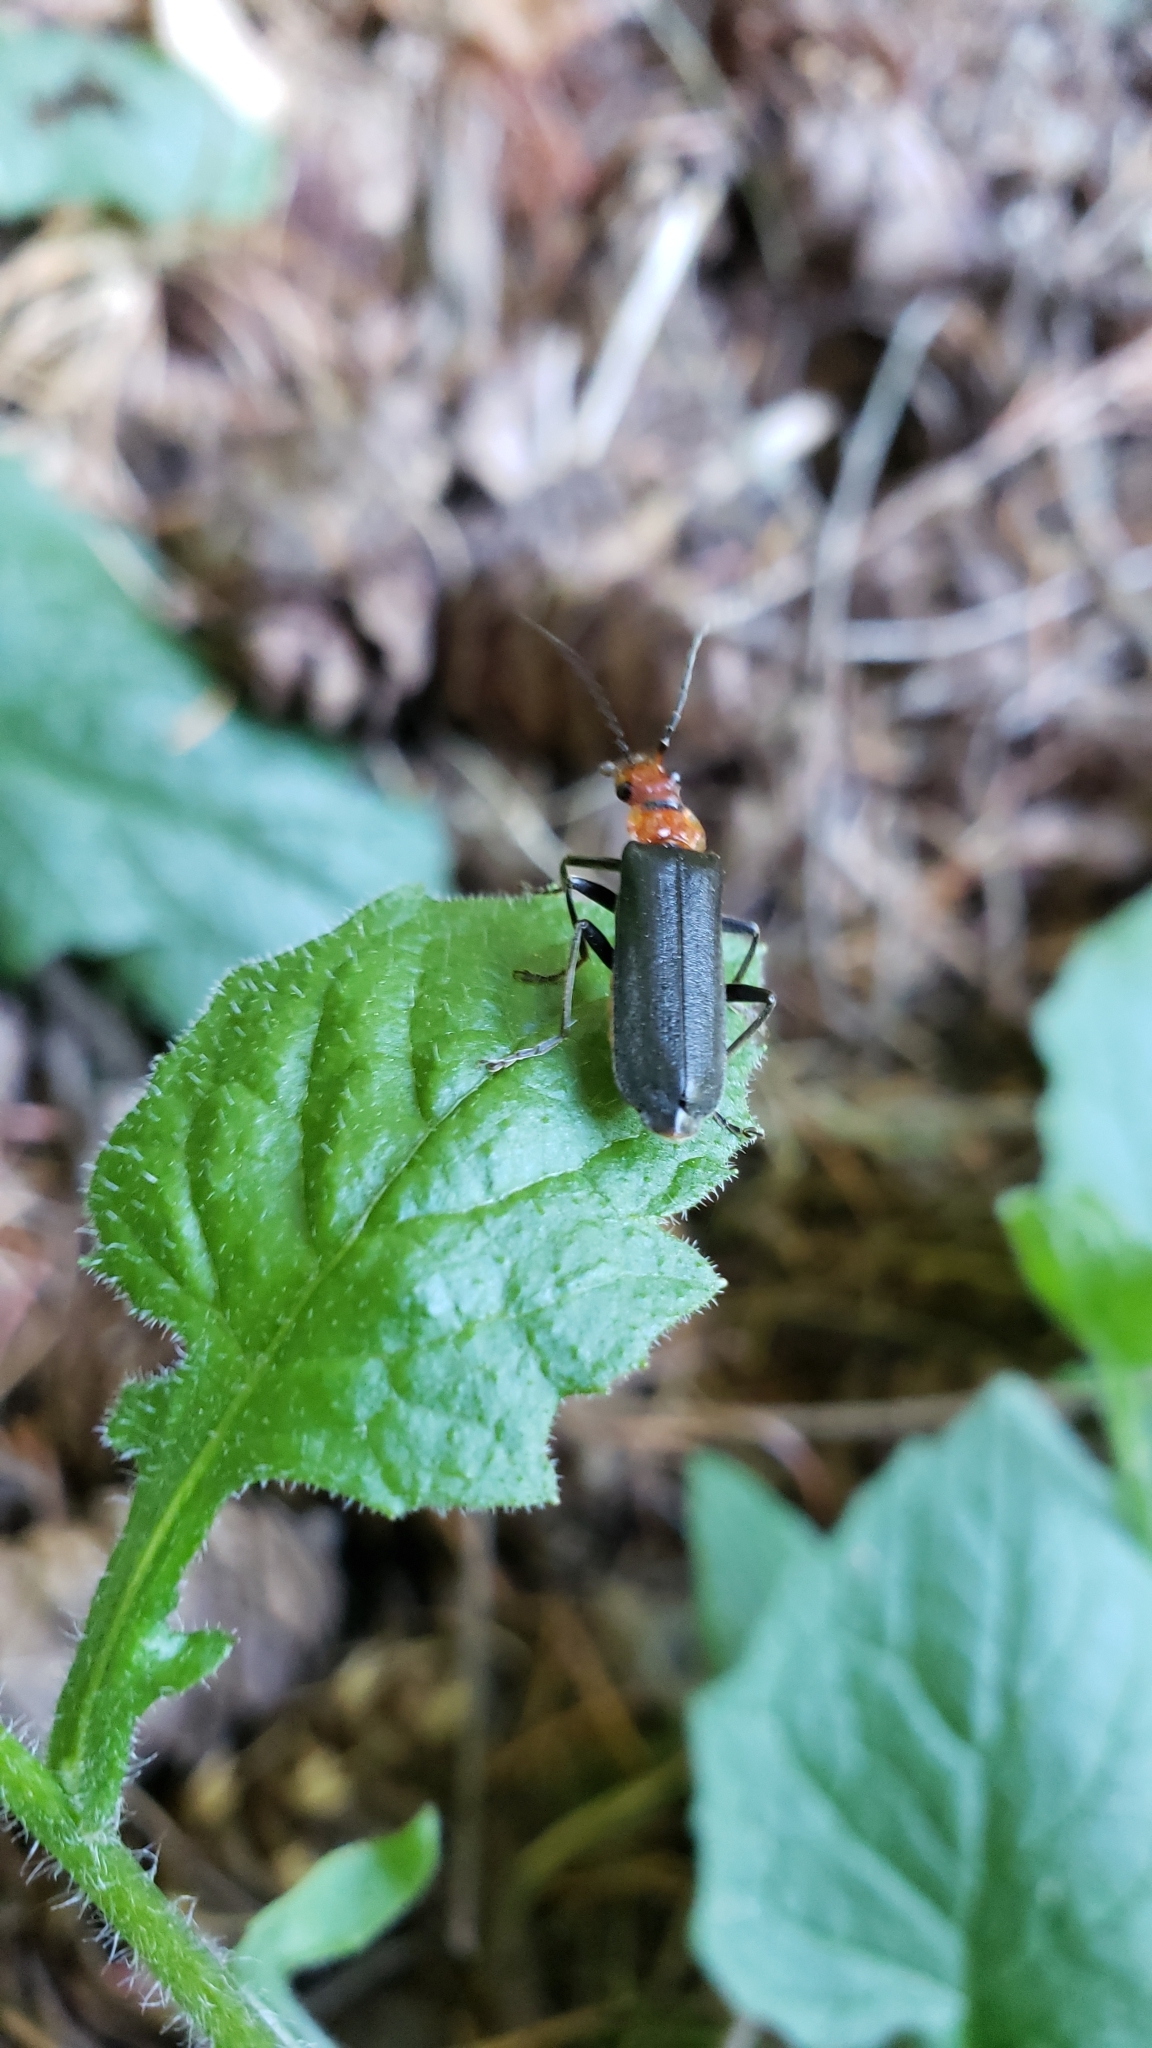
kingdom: Animalia
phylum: Arthropoda
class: Insecta
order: Coleoptera
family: Cantharidae
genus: Podabrus
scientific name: Podabrus pruinosus
